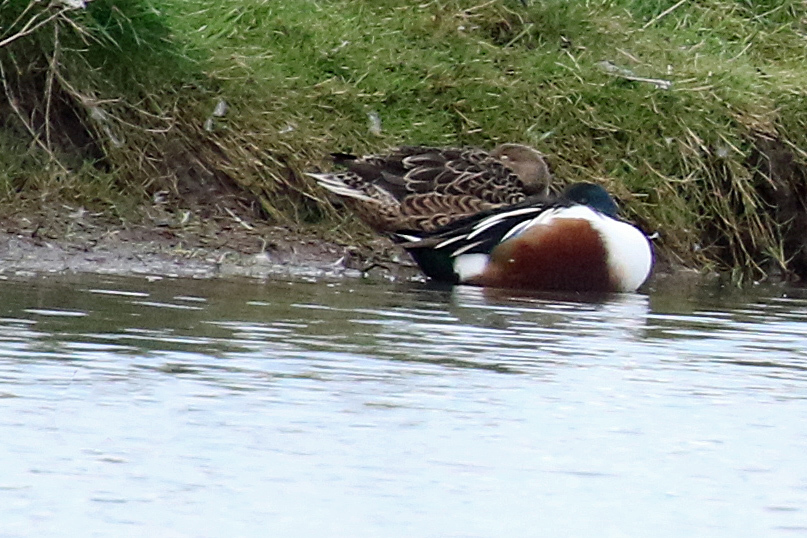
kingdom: Animalia
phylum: Chordata
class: Aves
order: Anseriformes
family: Anatidae
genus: Spatula
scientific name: Spatula clypeata
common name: Northern shoveler
